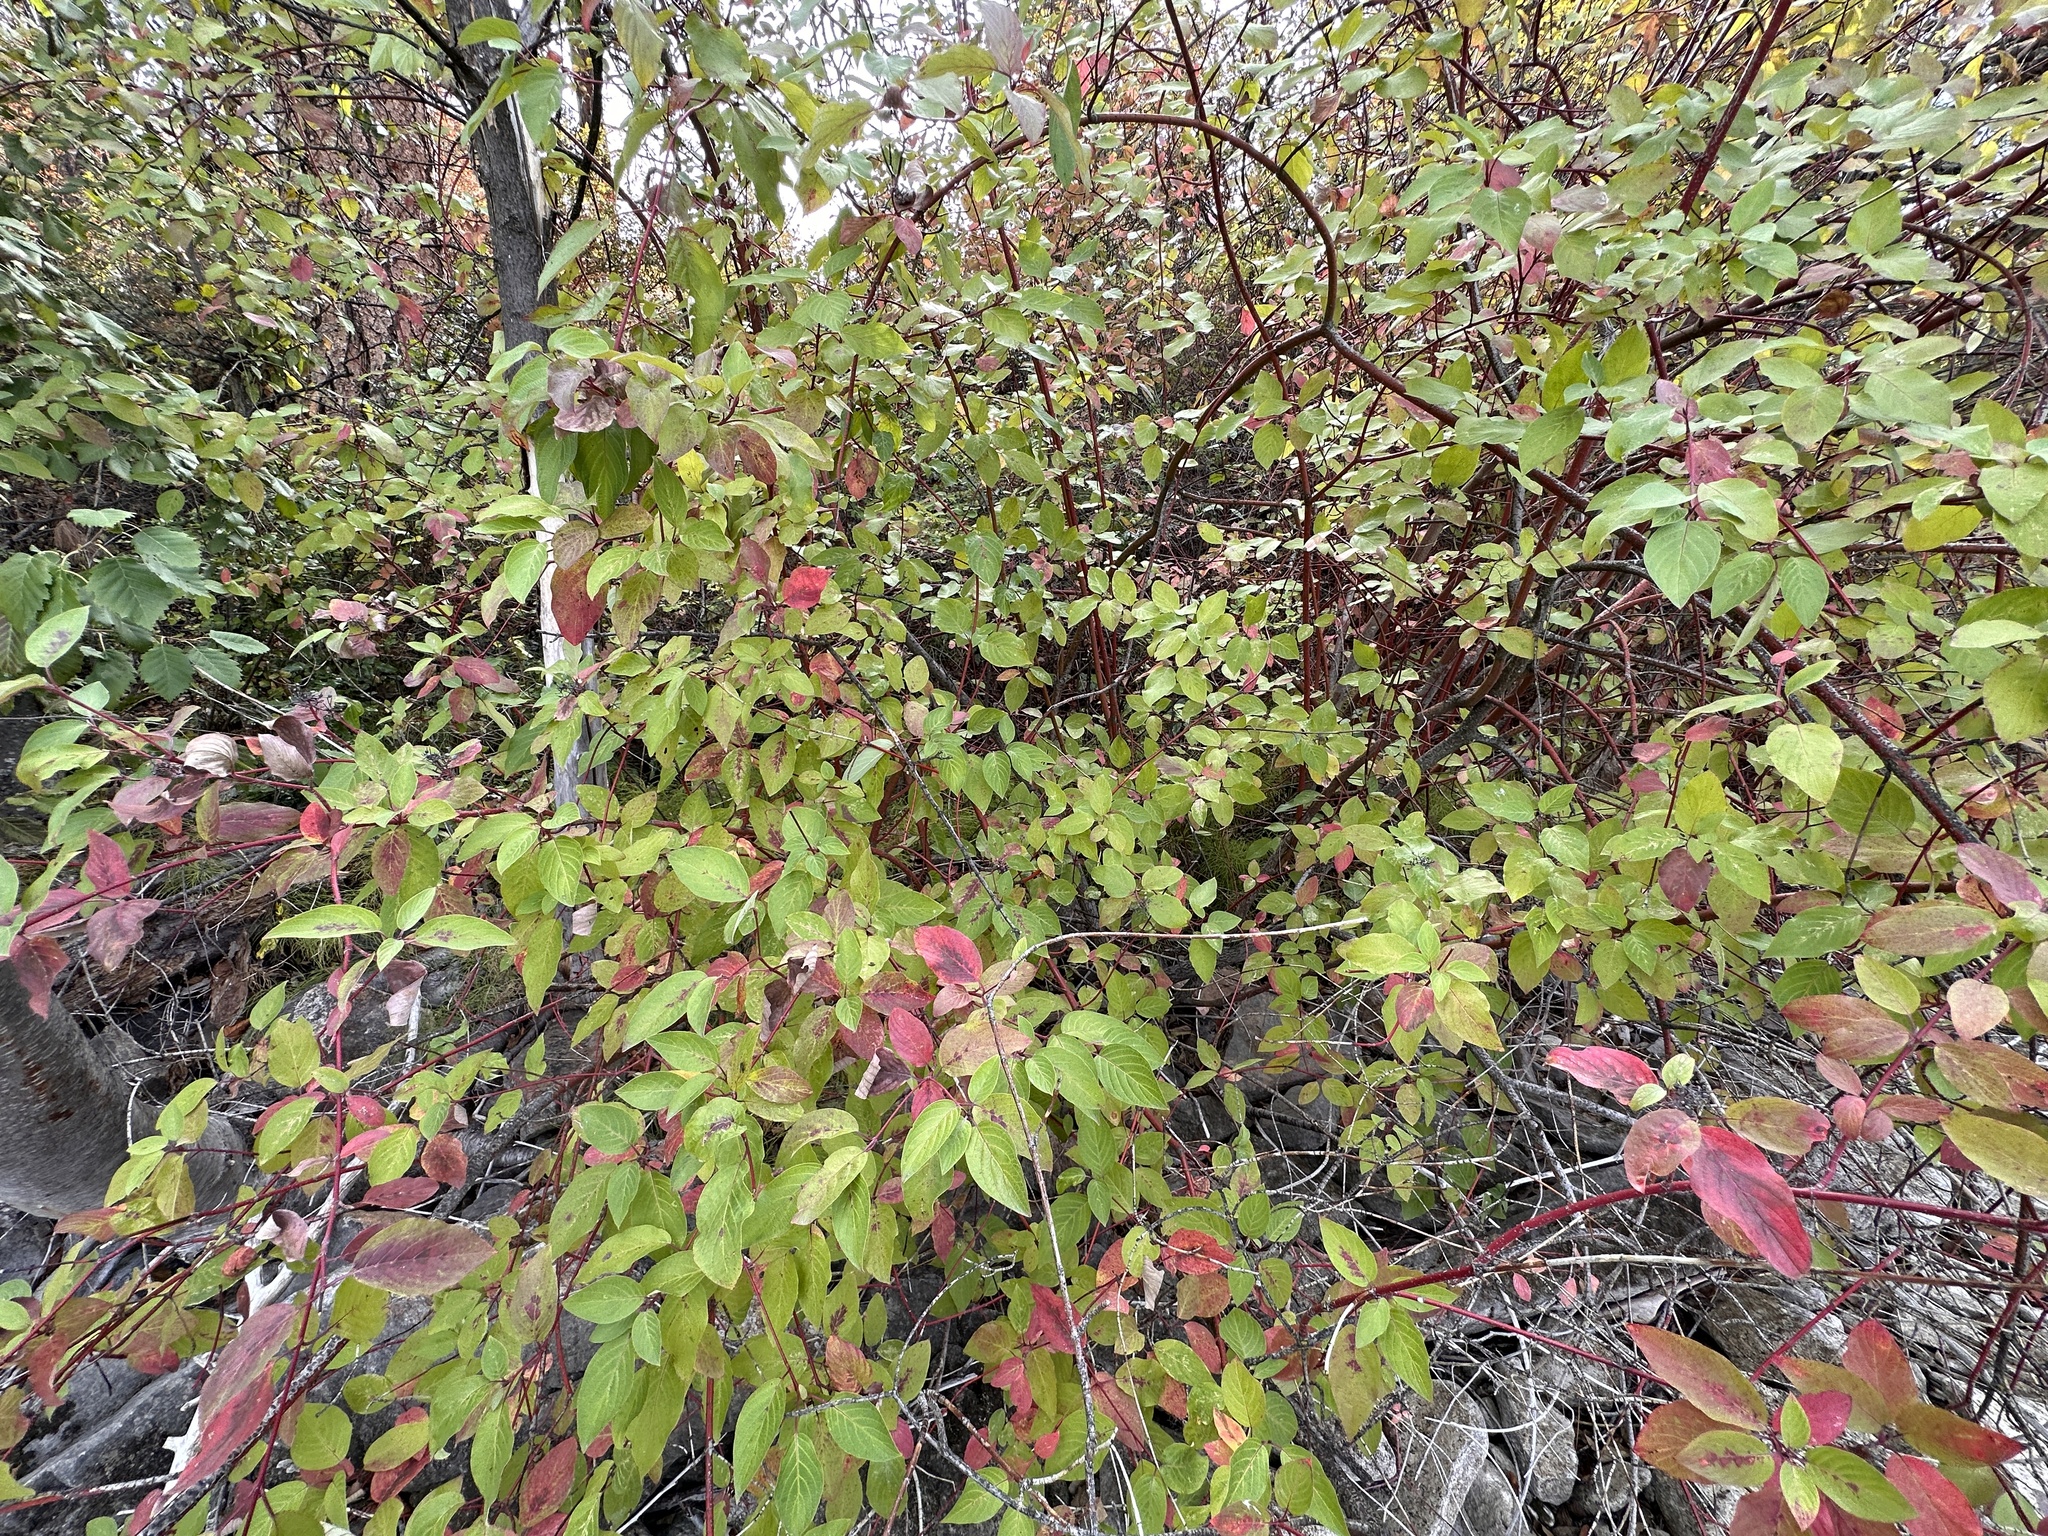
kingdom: Plantae
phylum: Tracheophyta
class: Magnoliopsida
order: Cornales
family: Cornaceae
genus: Cornus
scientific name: Cornus sericea
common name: Red-osier dogwood
